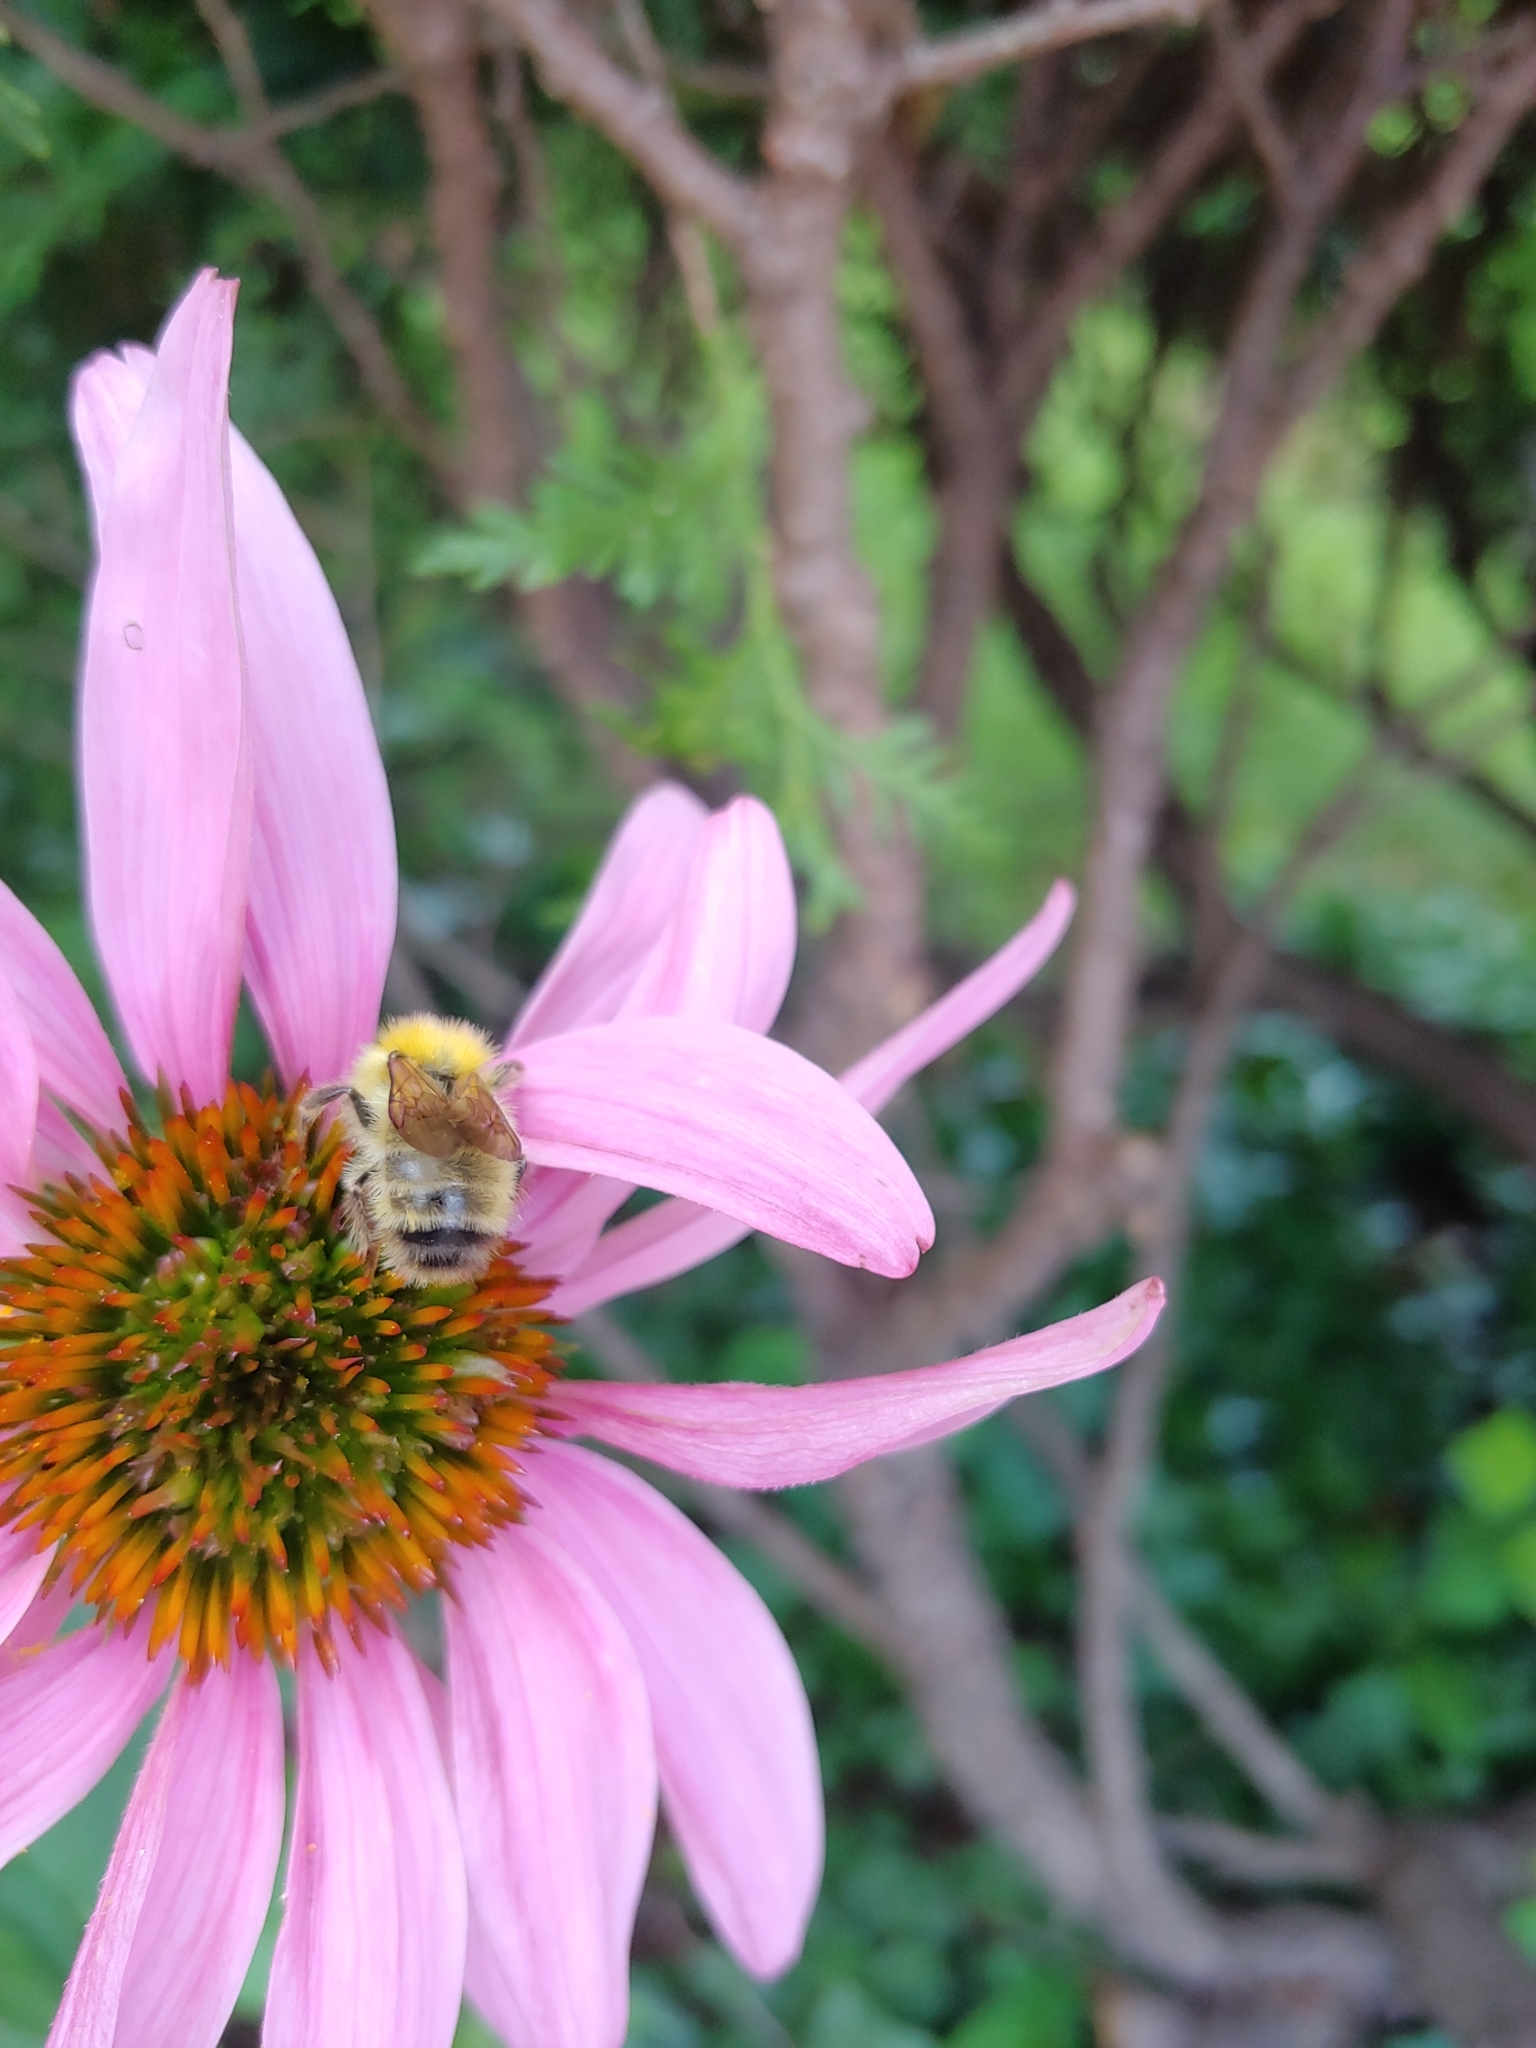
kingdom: Animalia
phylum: Arthropoda
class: Insecta
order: Hymenoptera
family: Apidae
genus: Bombus
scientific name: Bombus perplexus
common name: Confusing bumble bee
